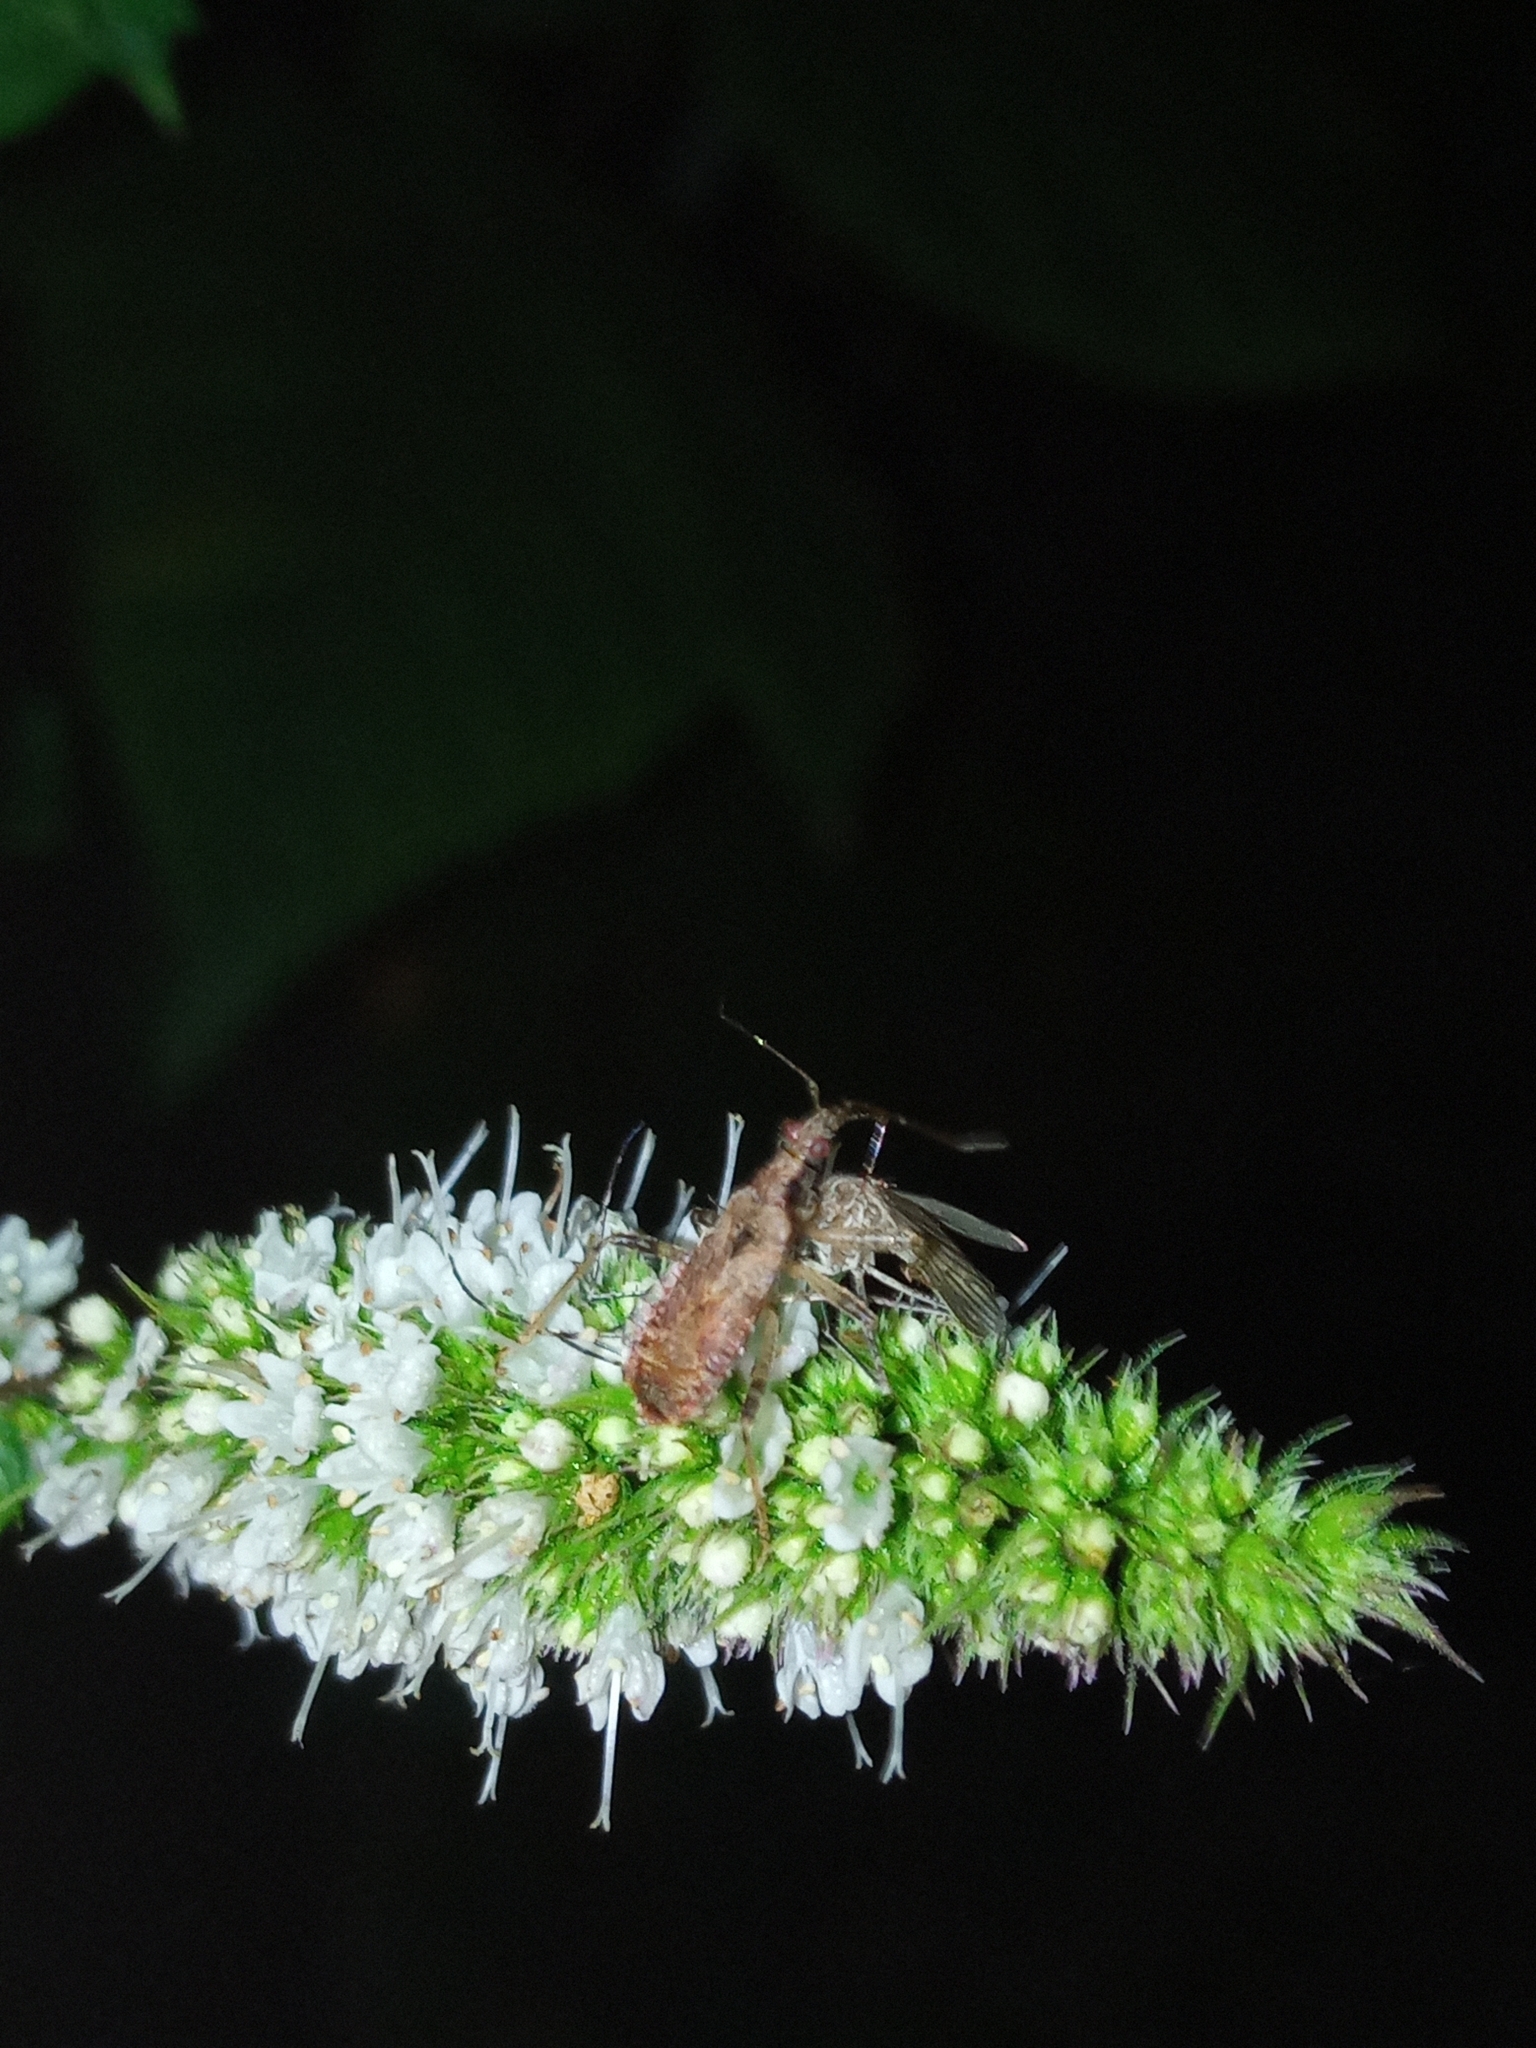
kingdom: Animalia
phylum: Arthropoda
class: Insecta
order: Hemiptera
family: Nabidae
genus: Himacerus
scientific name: Himacerus mirmicoides
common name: Ant damsel bug
